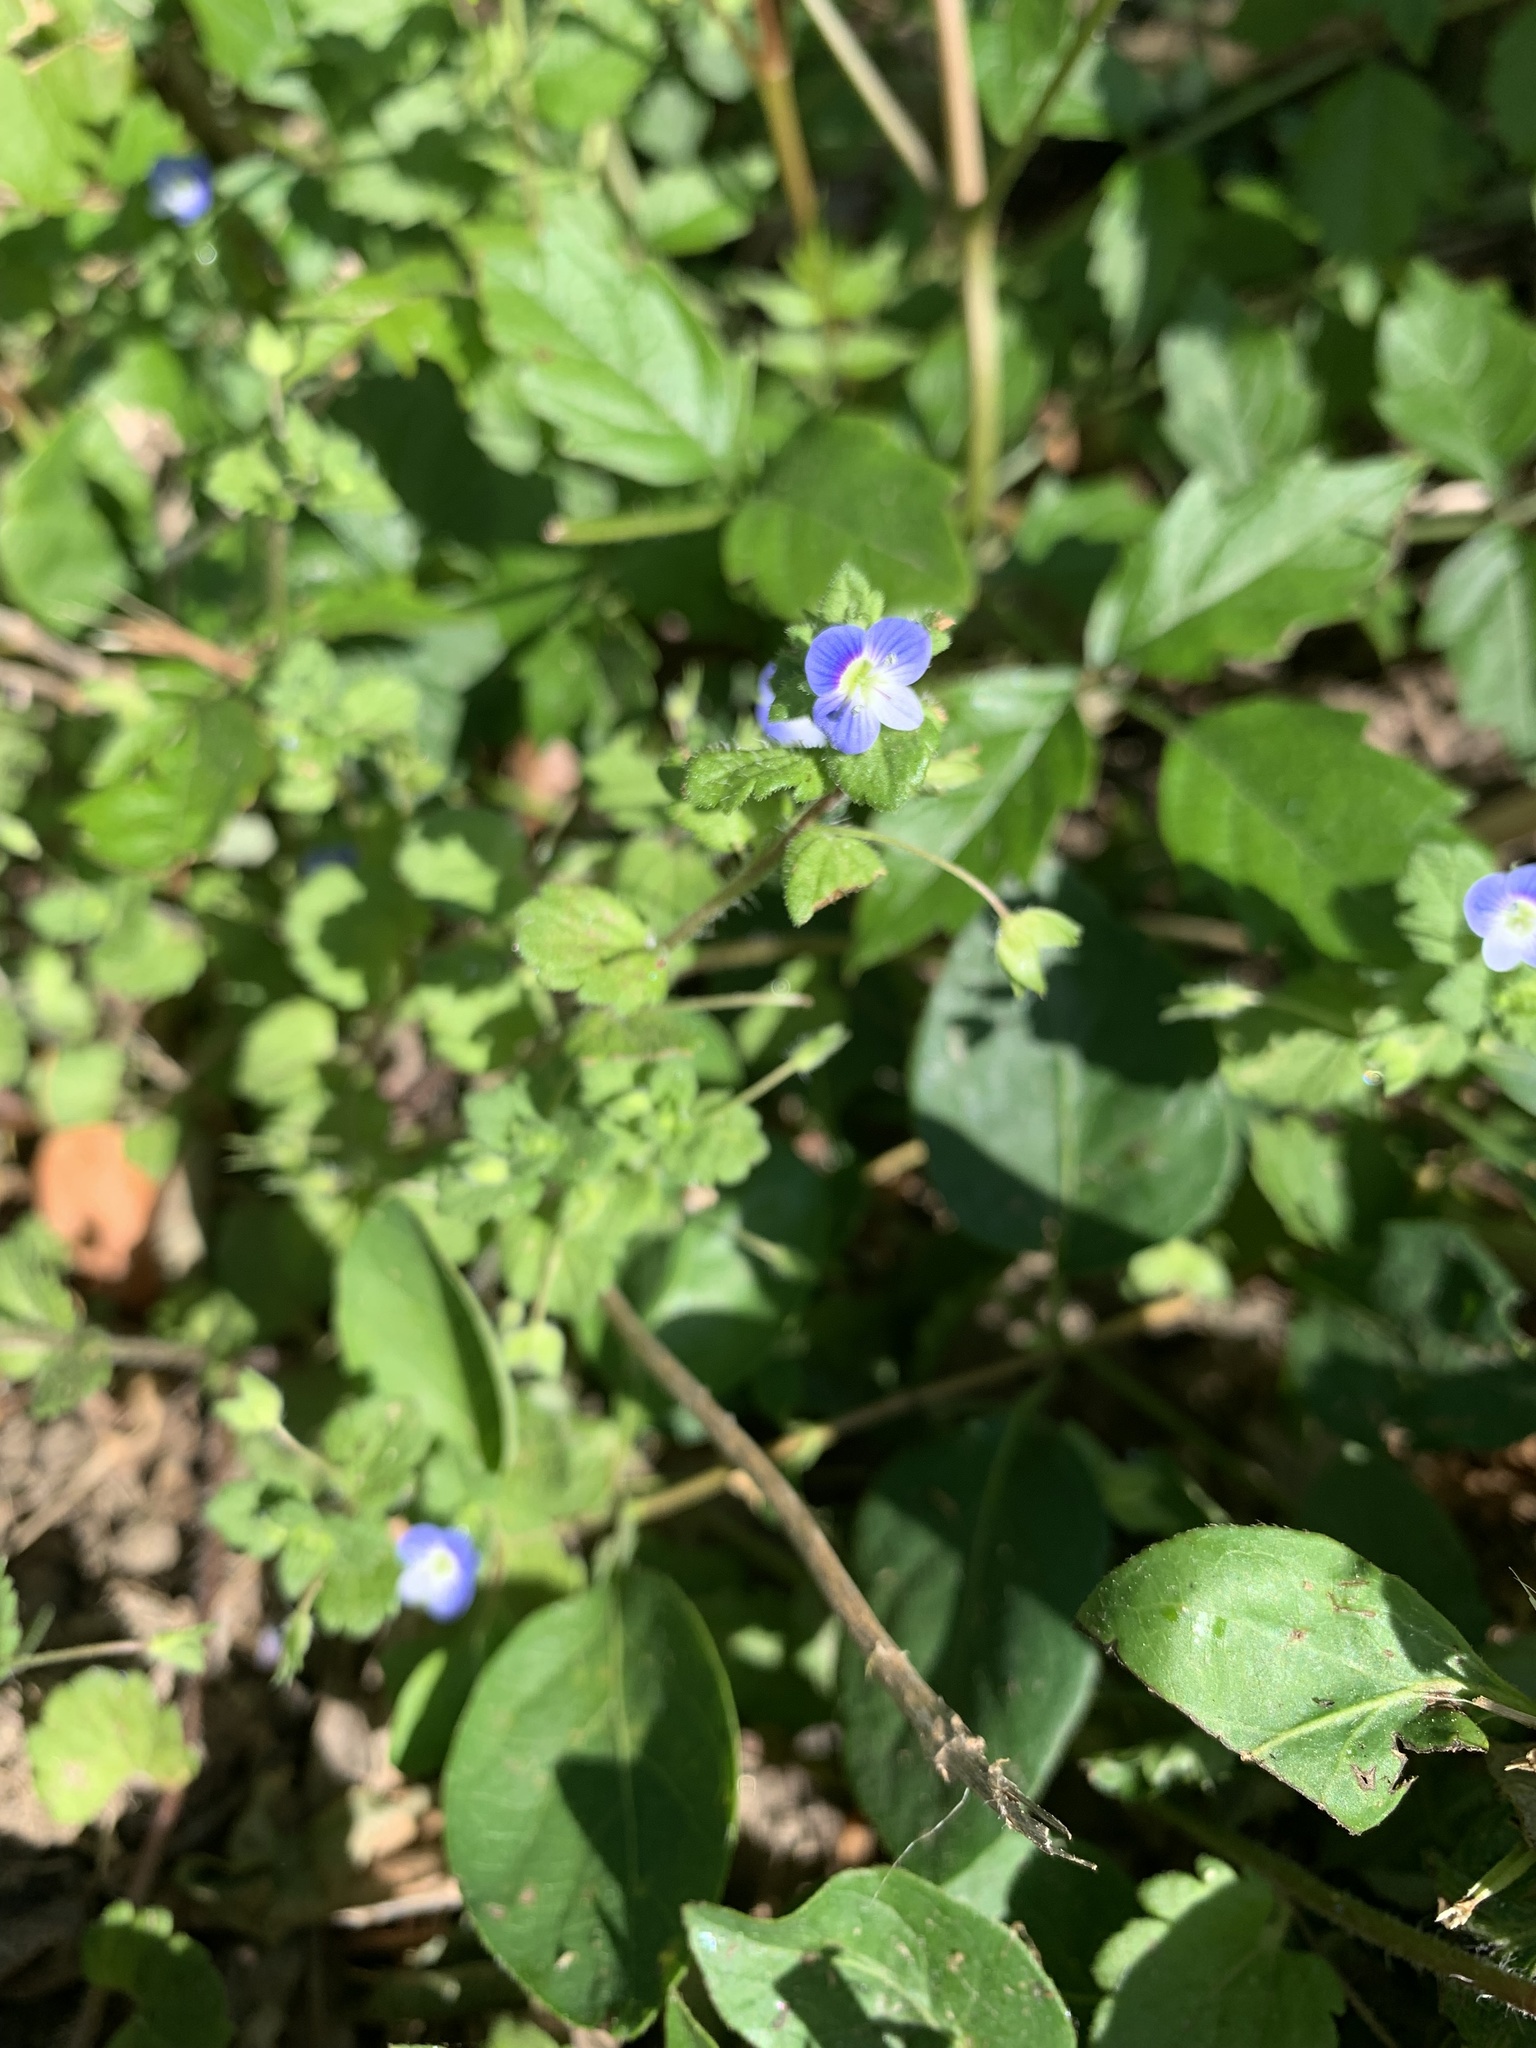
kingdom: Plantae
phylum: Tracheophyta
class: Magnoliopsida
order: Lamiales
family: Plantaginaceae
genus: Veronica
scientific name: Veronica persica
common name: Common field-speedwell
